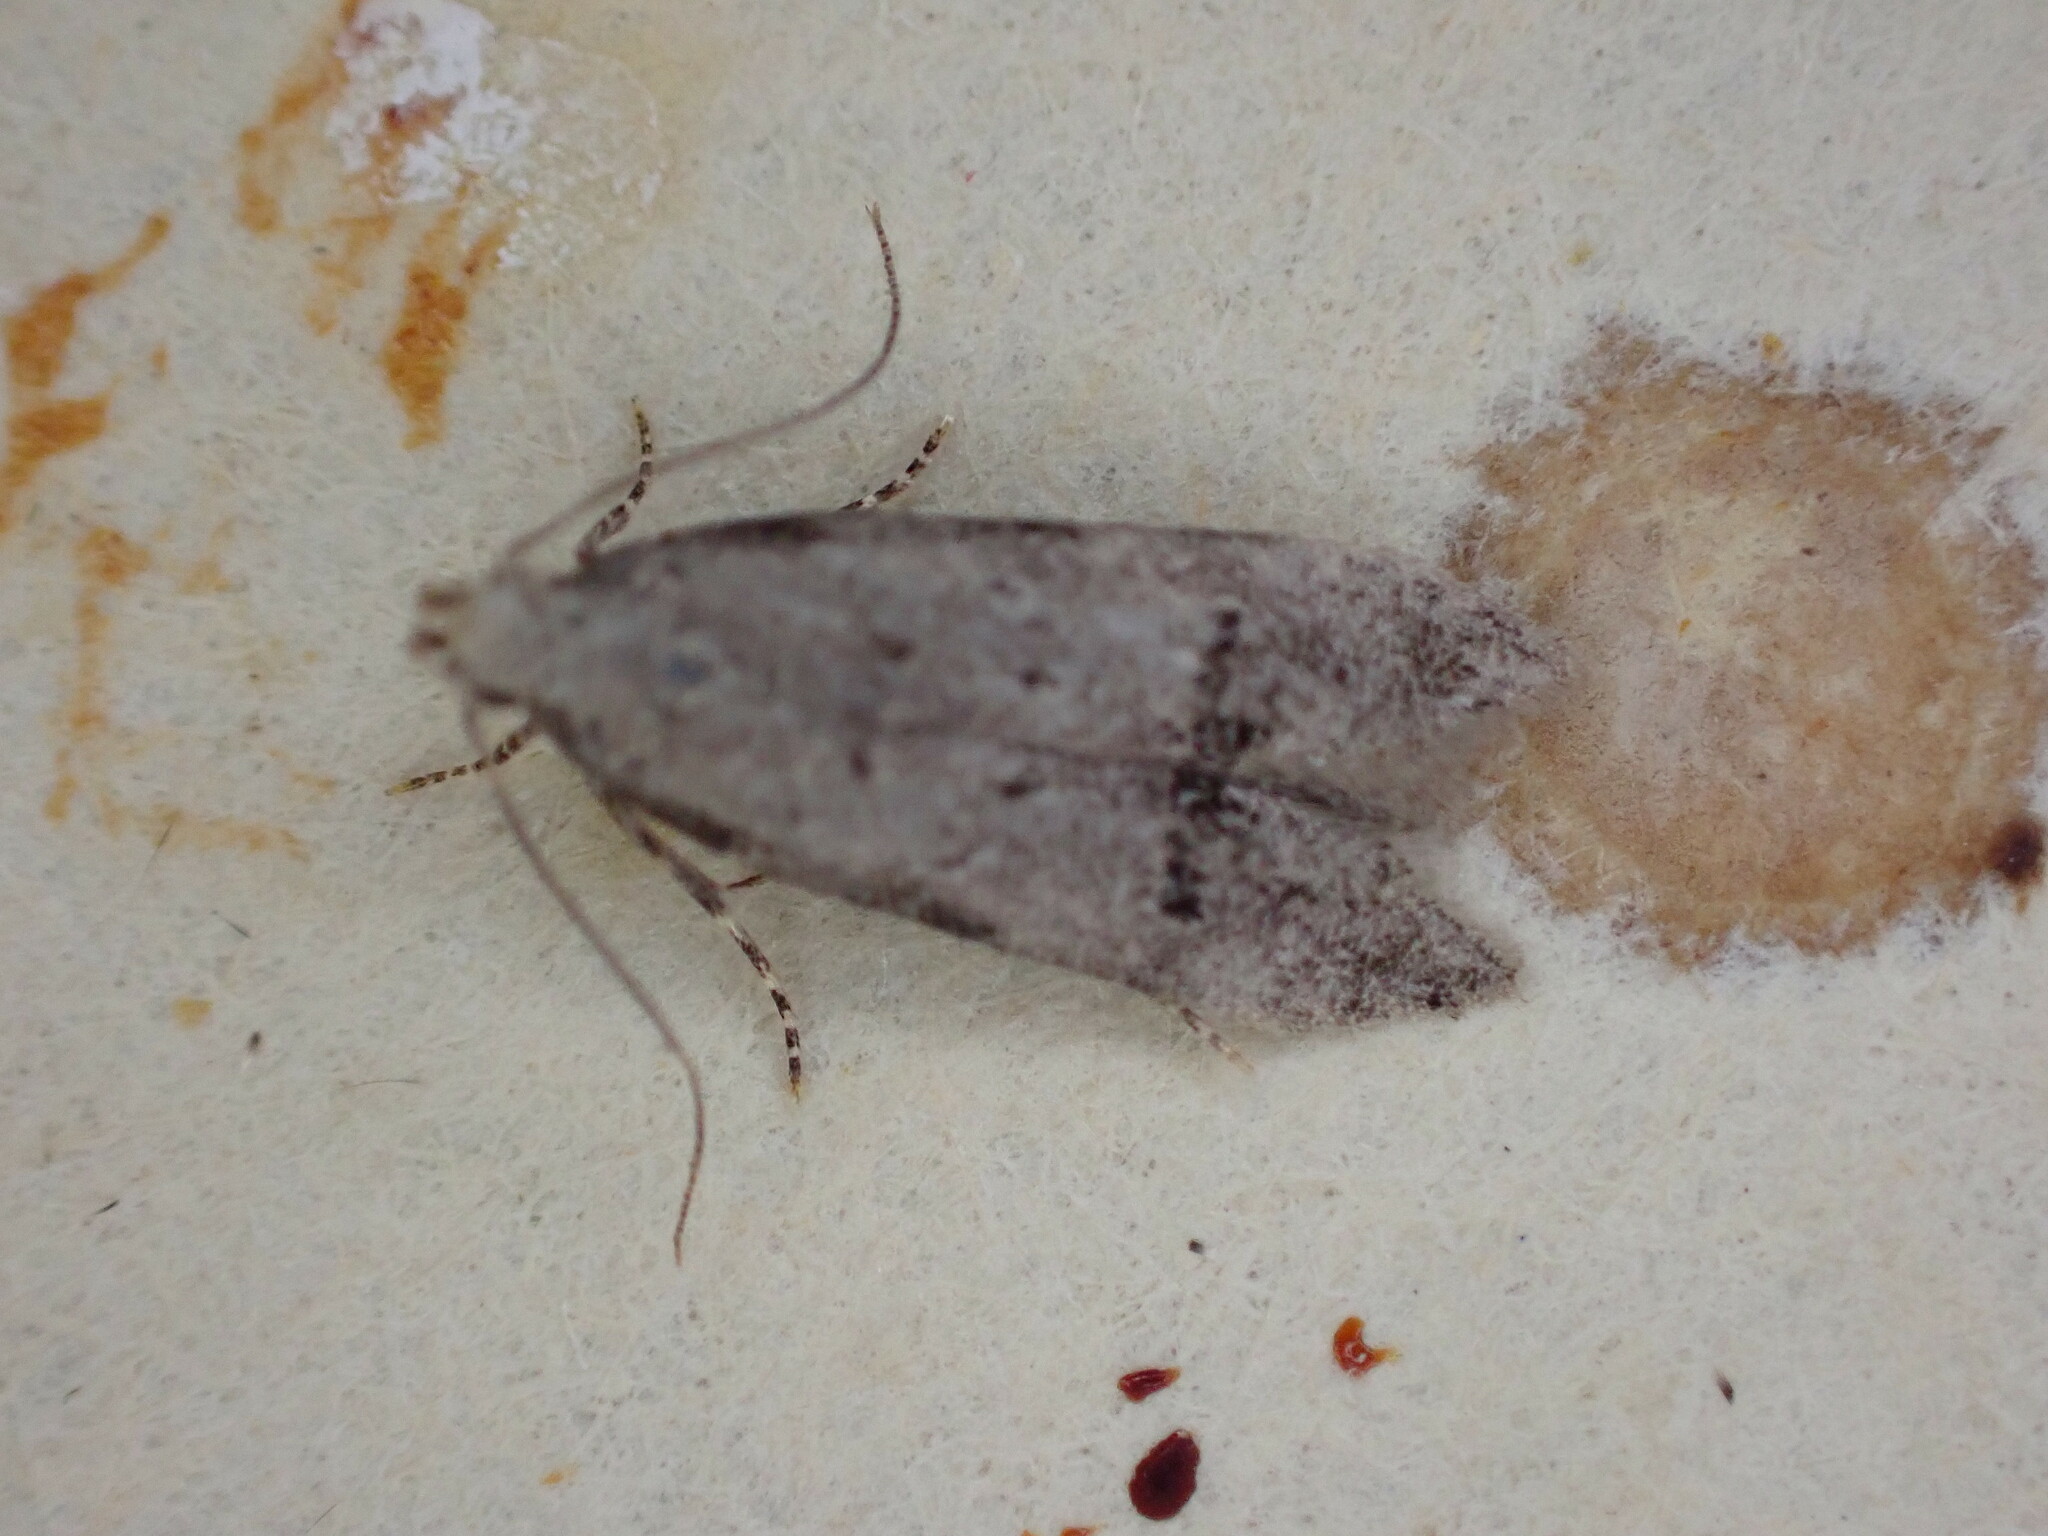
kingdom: Animalia
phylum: Arthropoda
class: Insecta
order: Lepidoptera
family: Gelechiidae
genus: Teleiodes
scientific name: Teleiodes vulgella
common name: Common groundling
